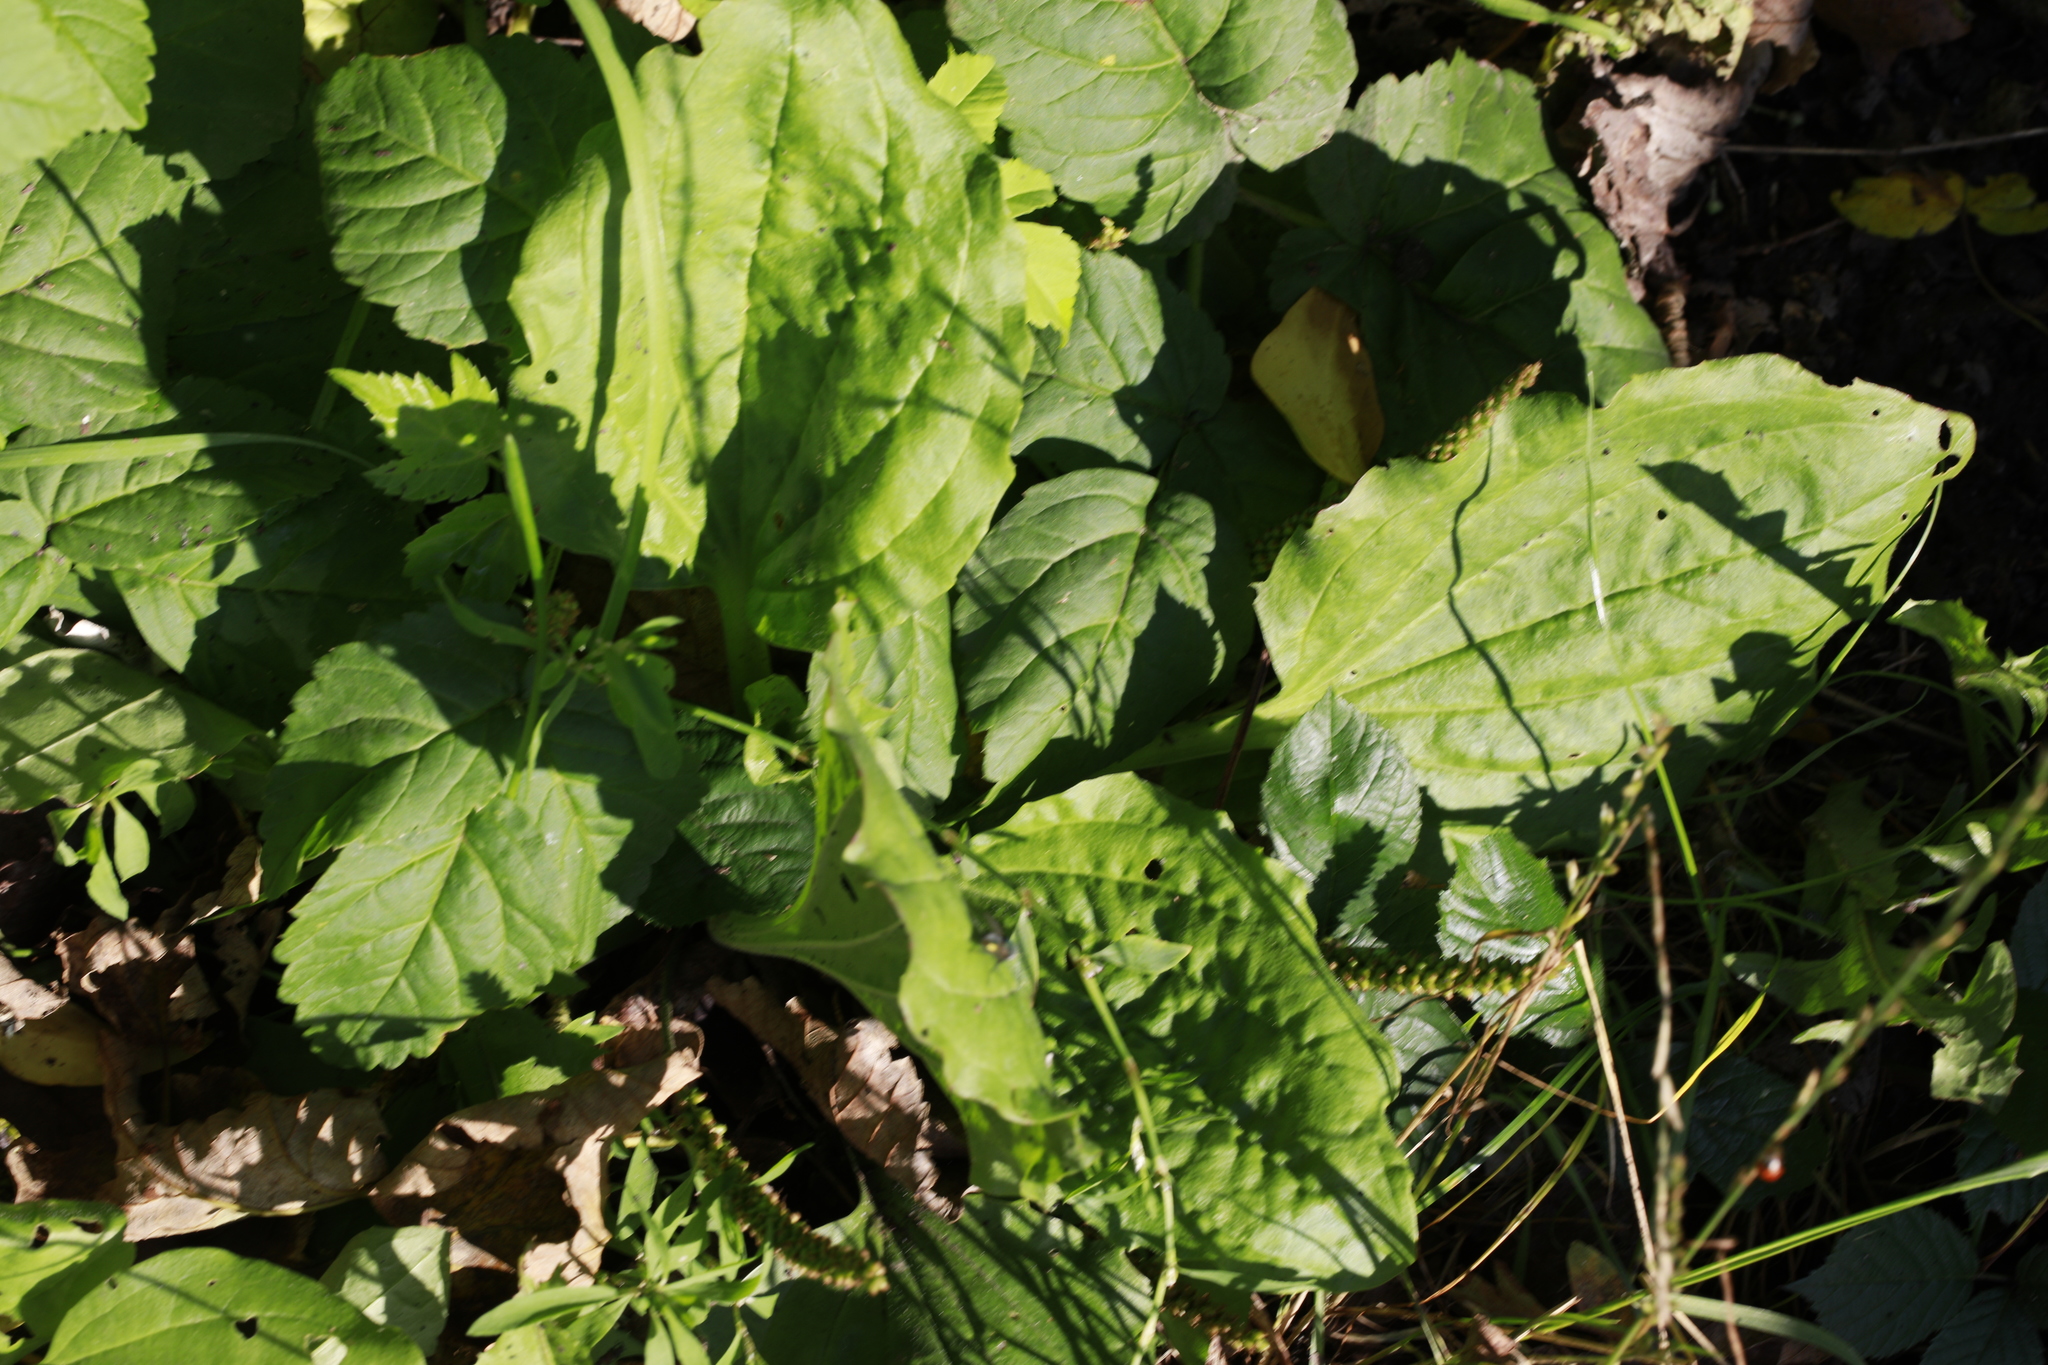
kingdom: Plantae
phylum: Tracheophyta
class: Magnoliopsida
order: Lamiales
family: Plantaginaceae
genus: Plantago
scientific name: Plantago major
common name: Common plantain
